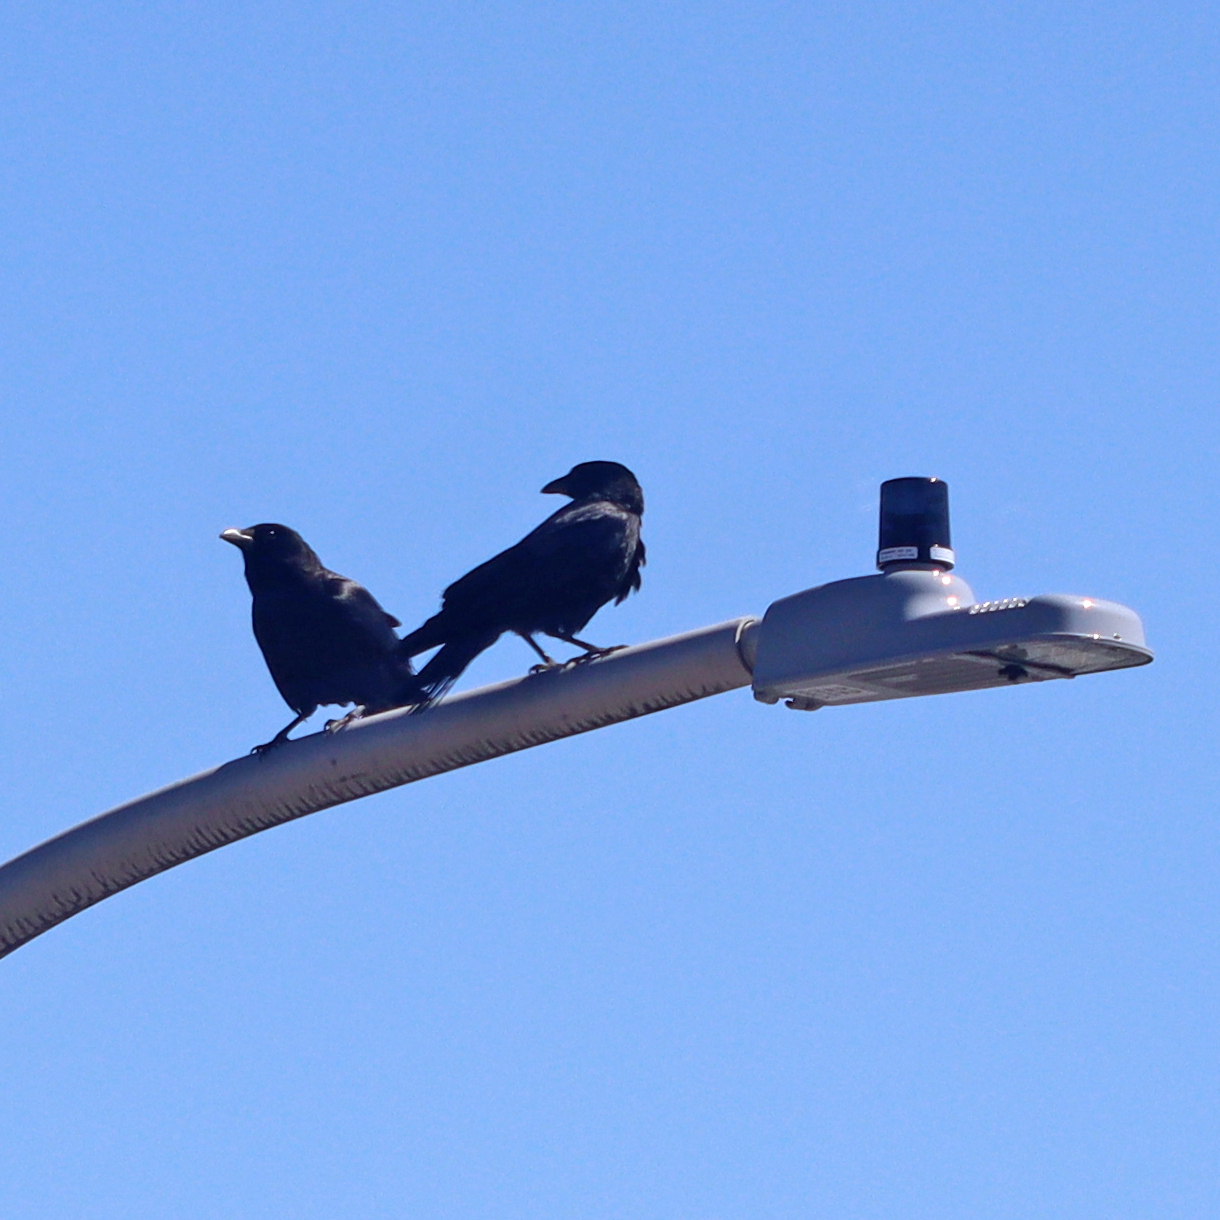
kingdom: Animalia
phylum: Chordata
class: Aves
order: Passeriformes
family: Corvidae
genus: Corvus
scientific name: Corvus brachyrhynchos
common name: American crow
